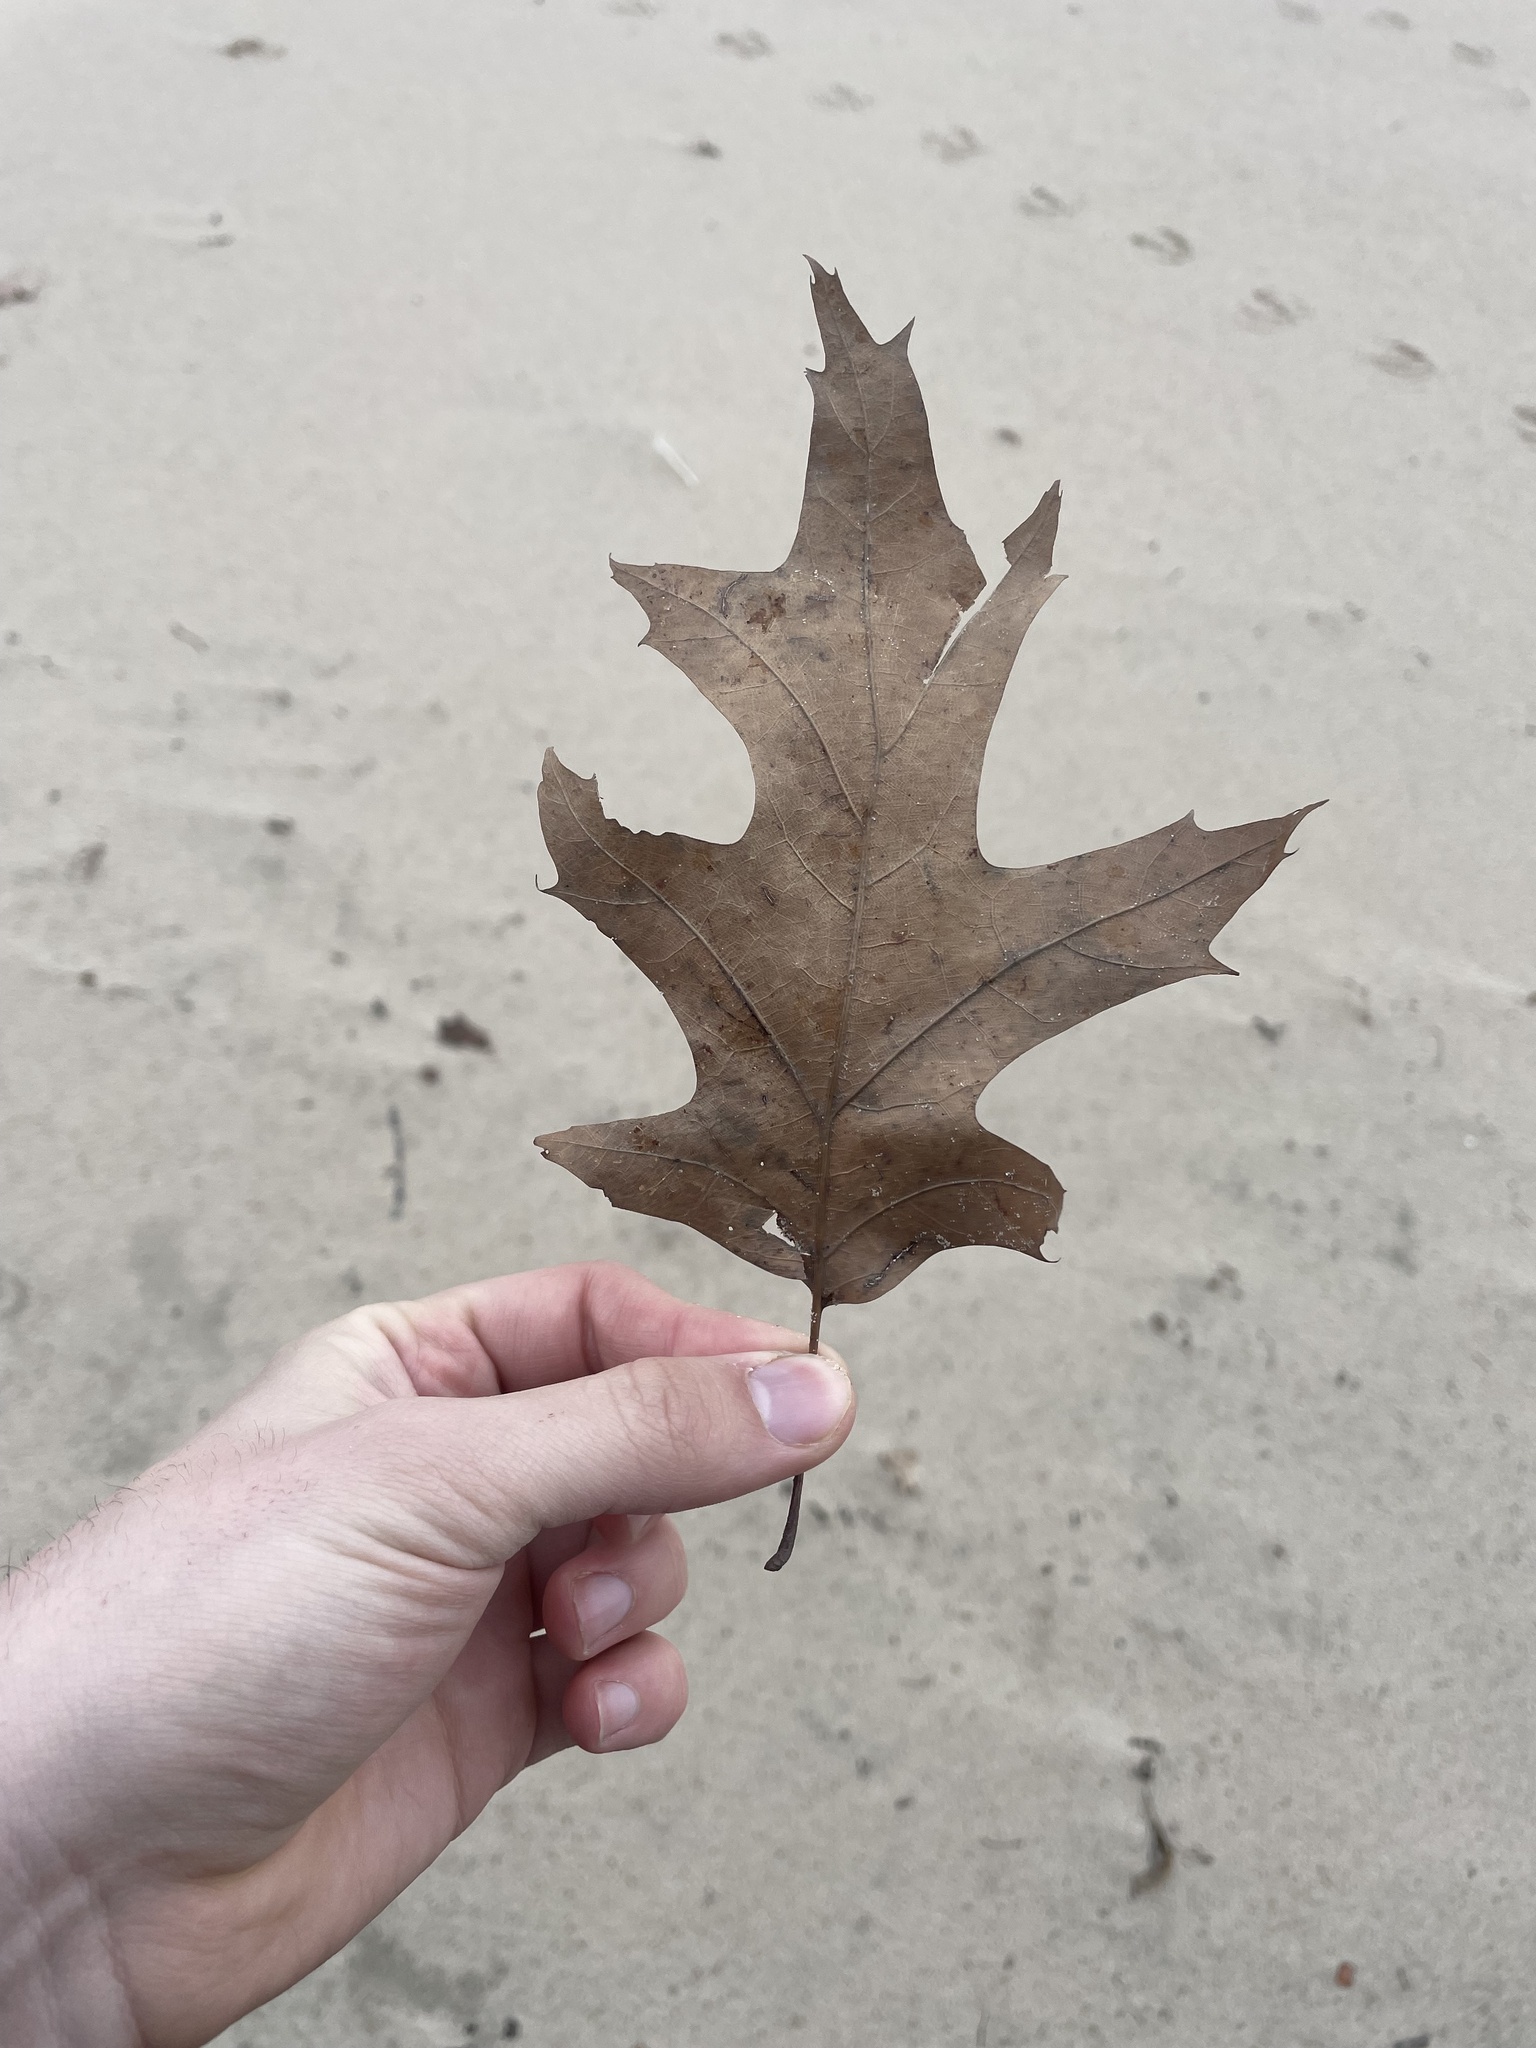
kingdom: Plantae
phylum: Tracheophyta
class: Magnoliopsida
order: Fagales
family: Fagaceae
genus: Quercus
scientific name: Quercus rubra
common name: Red oak
